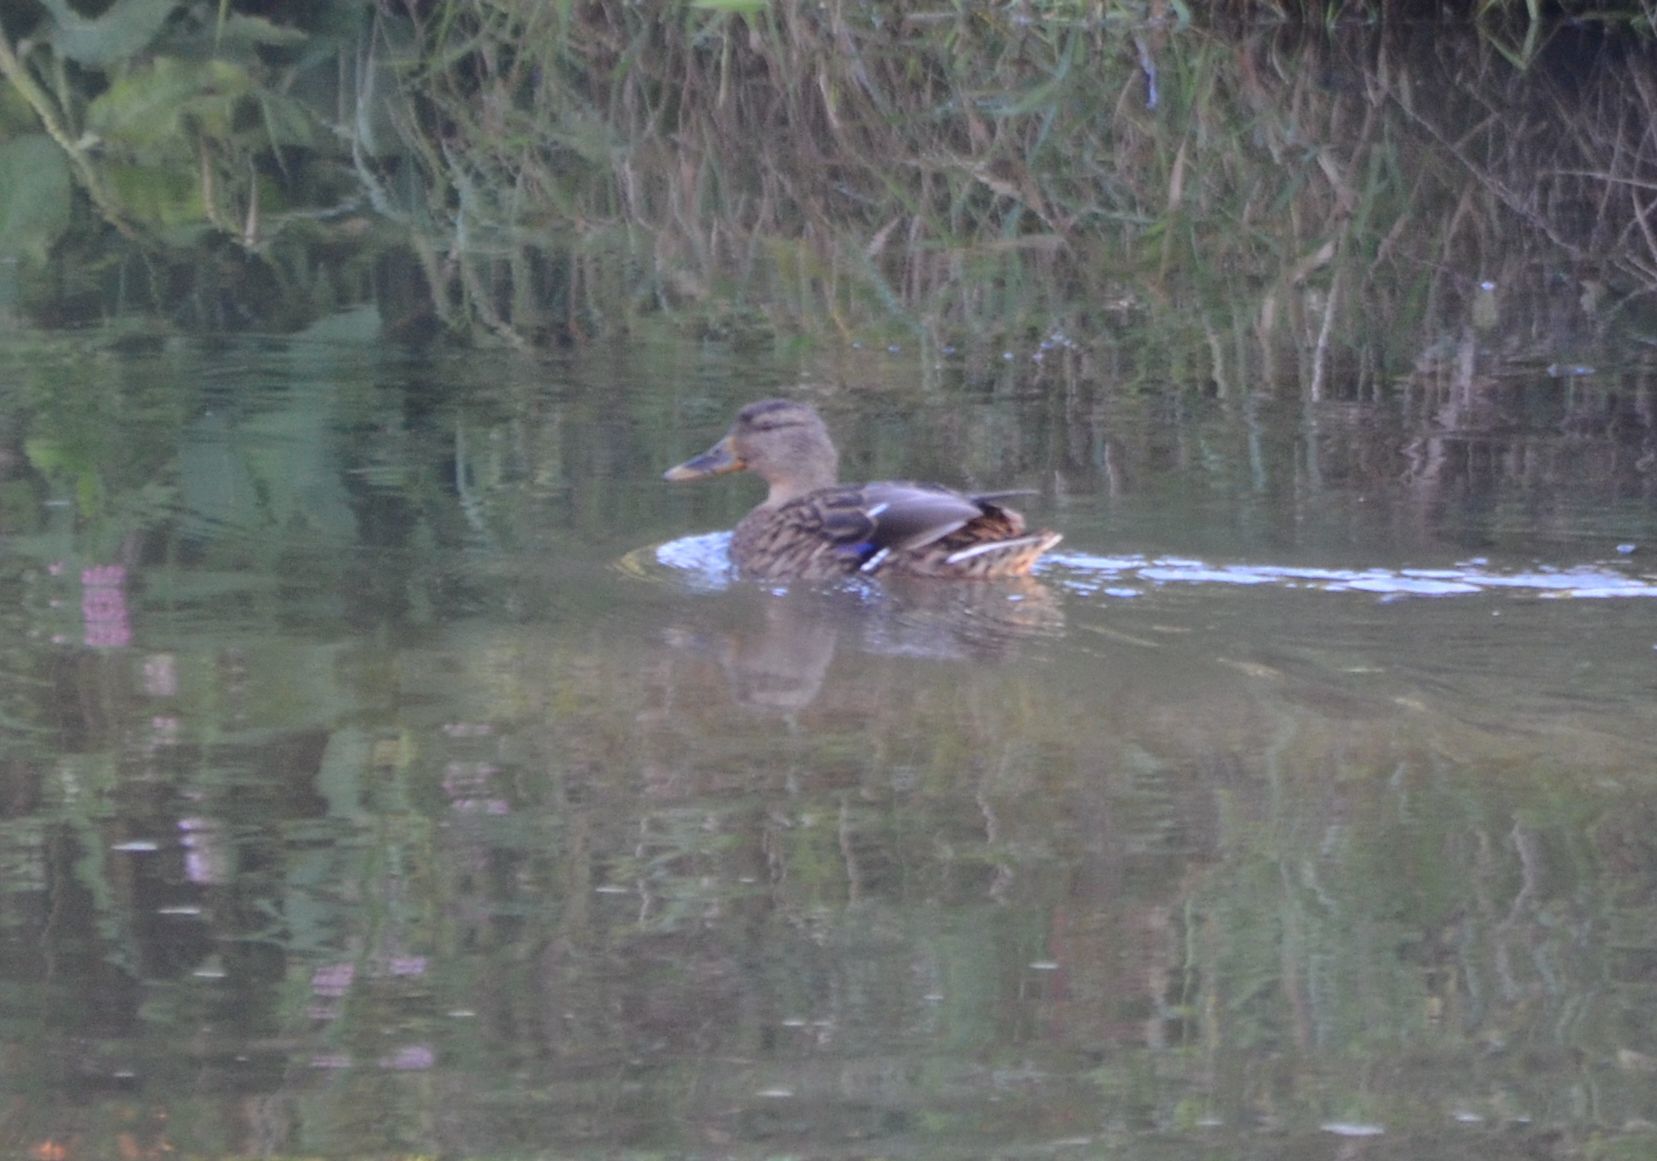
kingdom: Animalia
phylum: Chordata
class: Aves
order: Anseriformes
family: Anatidae
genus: Anas
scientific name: Anas platyrhynchos
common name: Mallard
